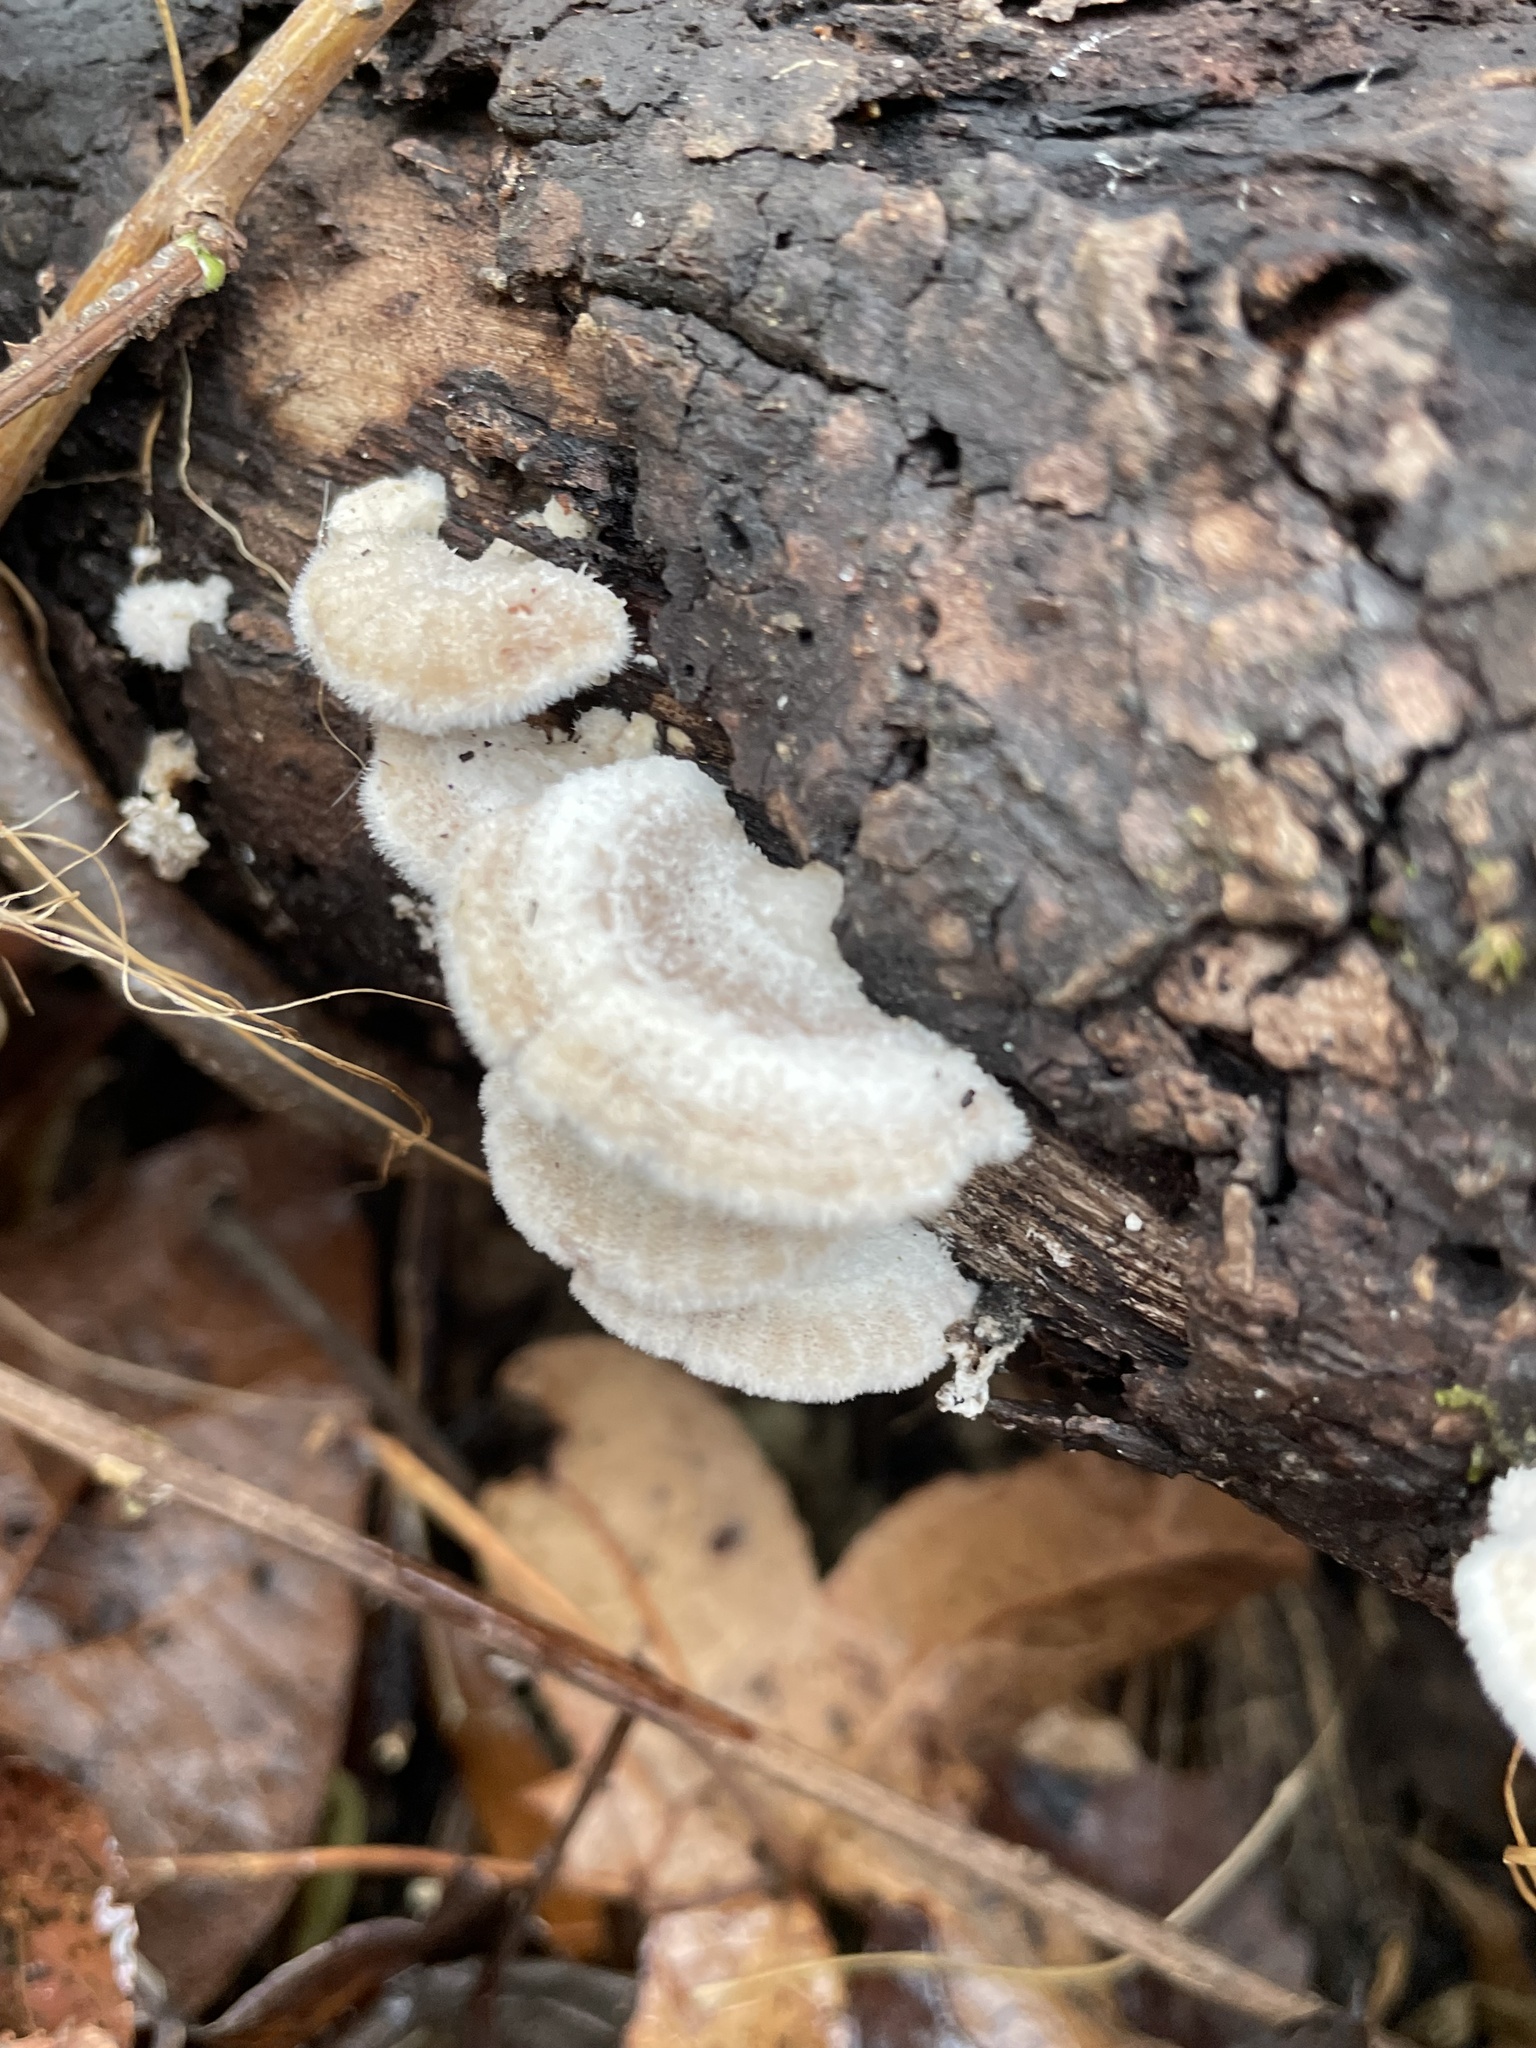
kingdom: Fungi
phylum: Basidiomycota
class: Agaricomycetes
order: Agaricales
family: Schizophyllaceae
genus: Schizophyllum
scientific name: Schizophyllum commune
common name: Common porecrust
